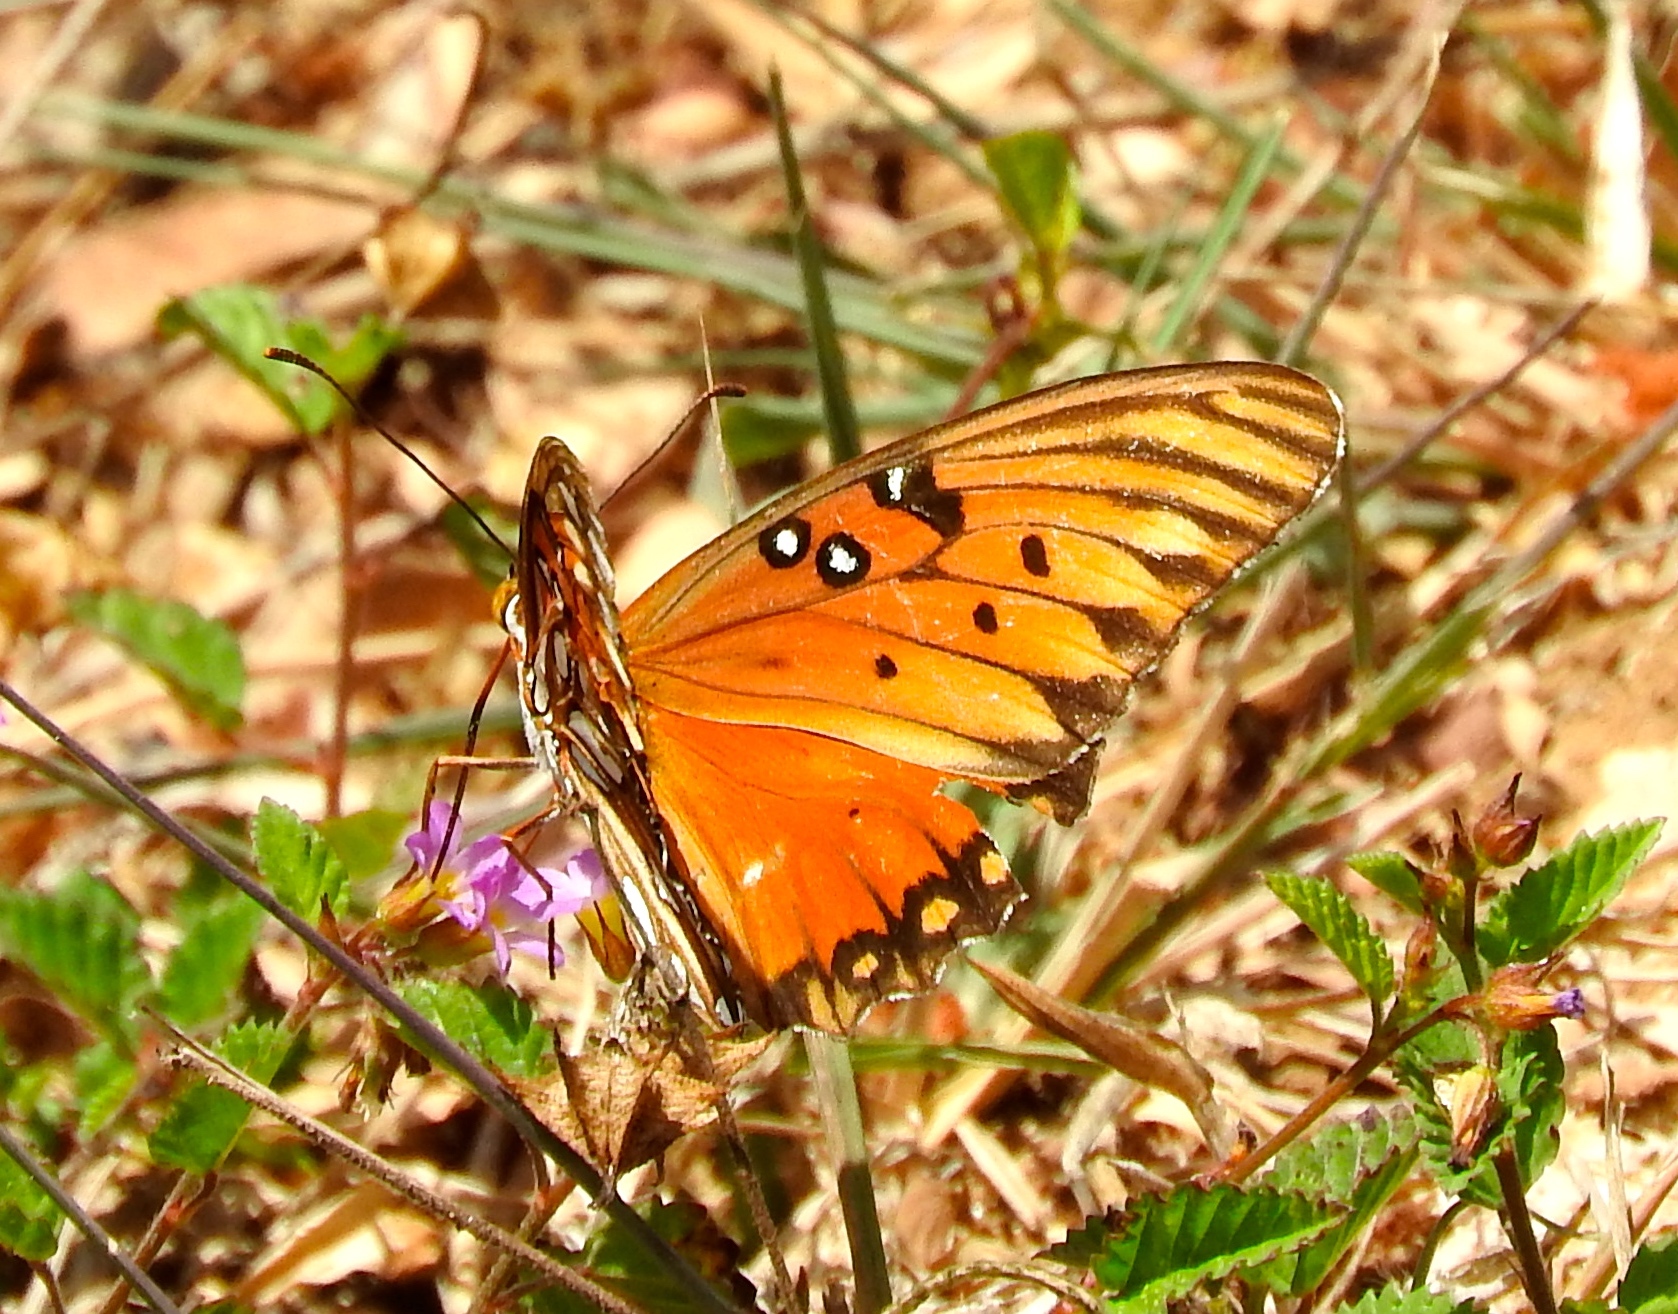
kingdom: Animalia
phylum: Arthropoda
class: Insecta
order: Lepidoptera
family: Nymphalidae
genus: Dione
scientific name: Dione vanillae
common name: Gulf fritillary
